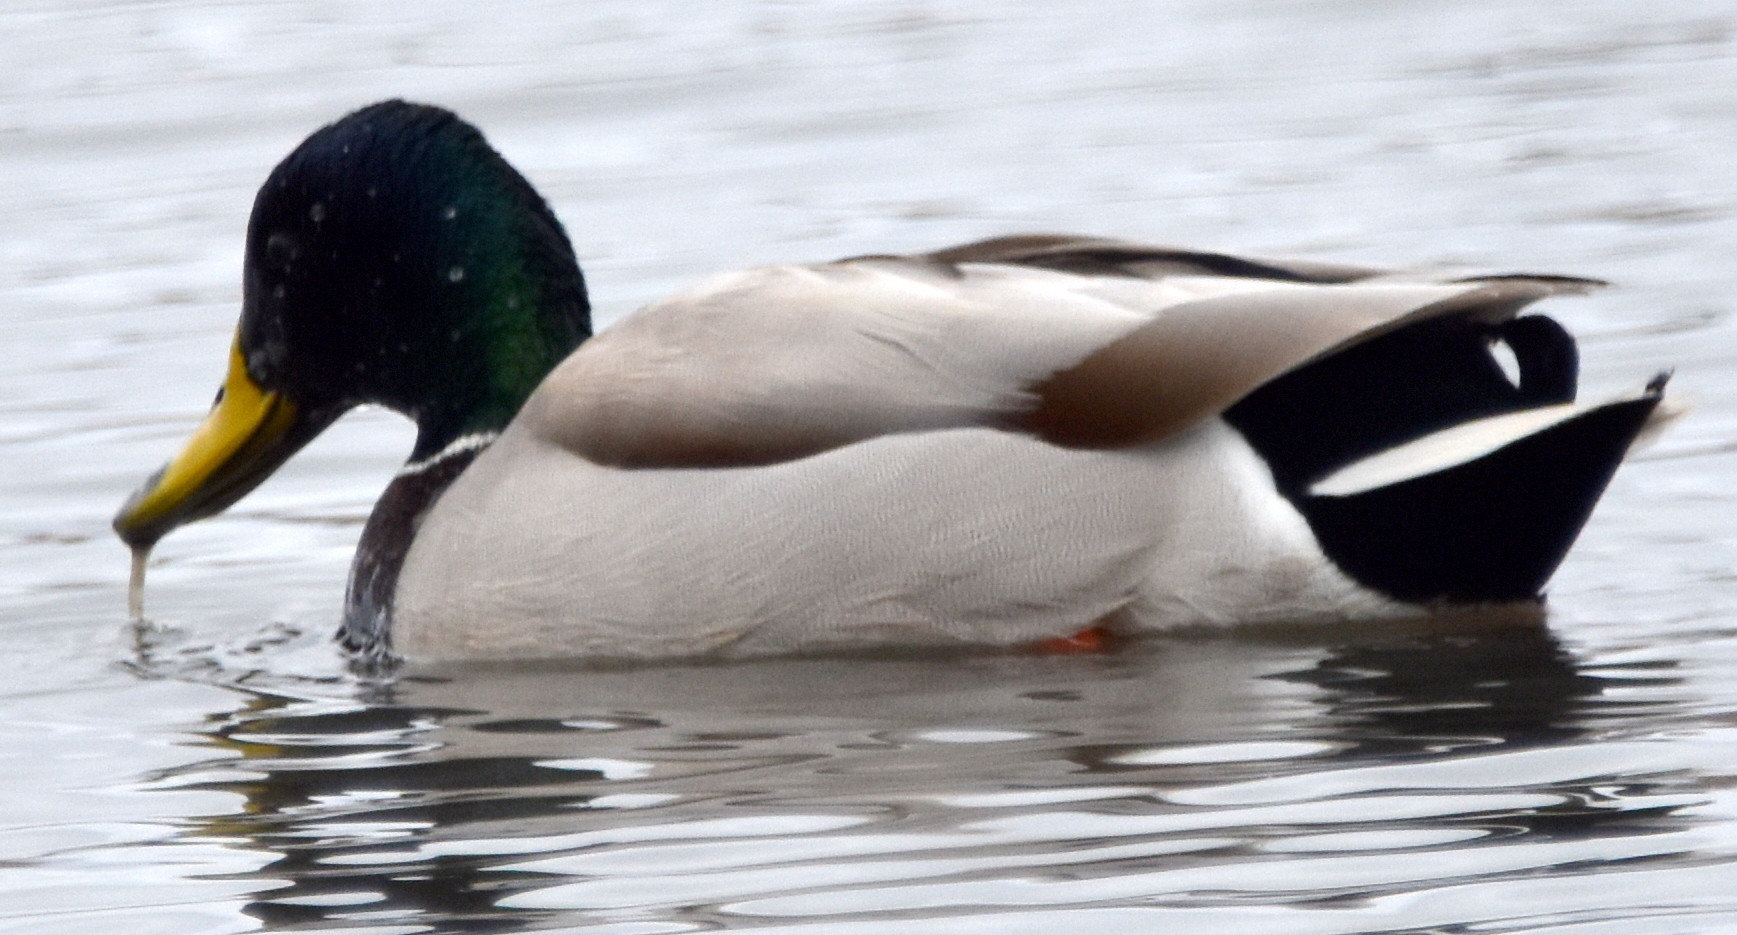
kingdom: Animalia
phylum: Chordata
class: Aves
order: Anseriformes
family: Anatidae
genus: Anas
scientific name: Anas platyrhynchos
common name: Mallard
